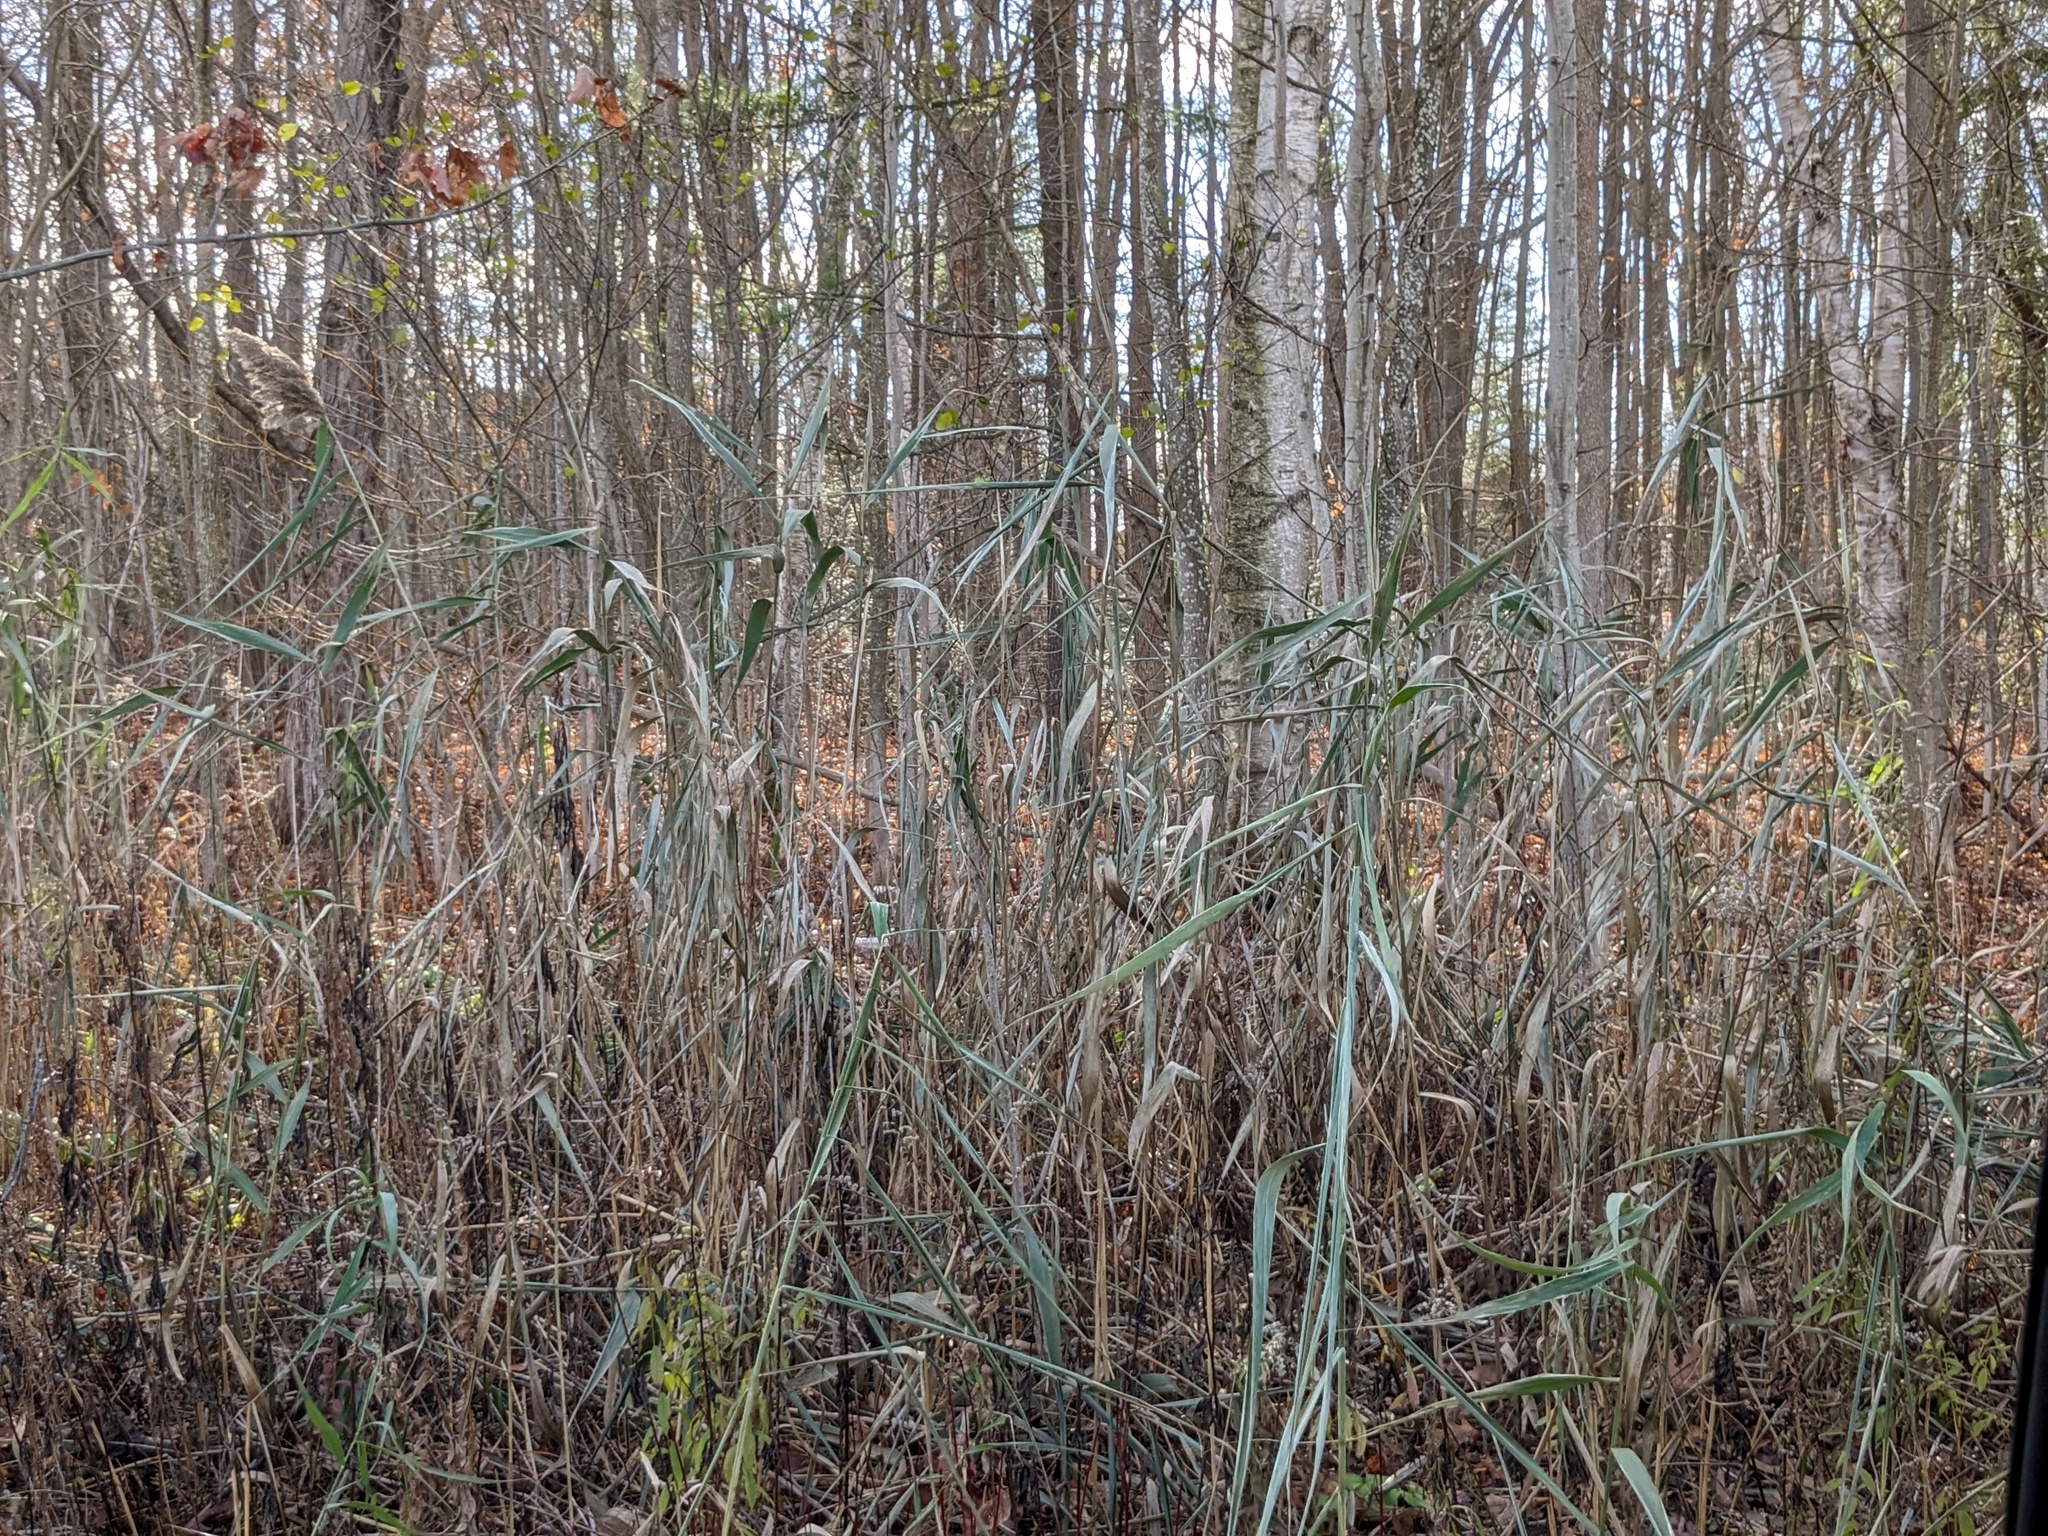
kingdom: Plantae
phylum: Tracheophyta
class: Liliopsida
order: Poales
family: Poaceae
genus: Phragmites
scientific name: Phragmites australis
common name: Common reed
